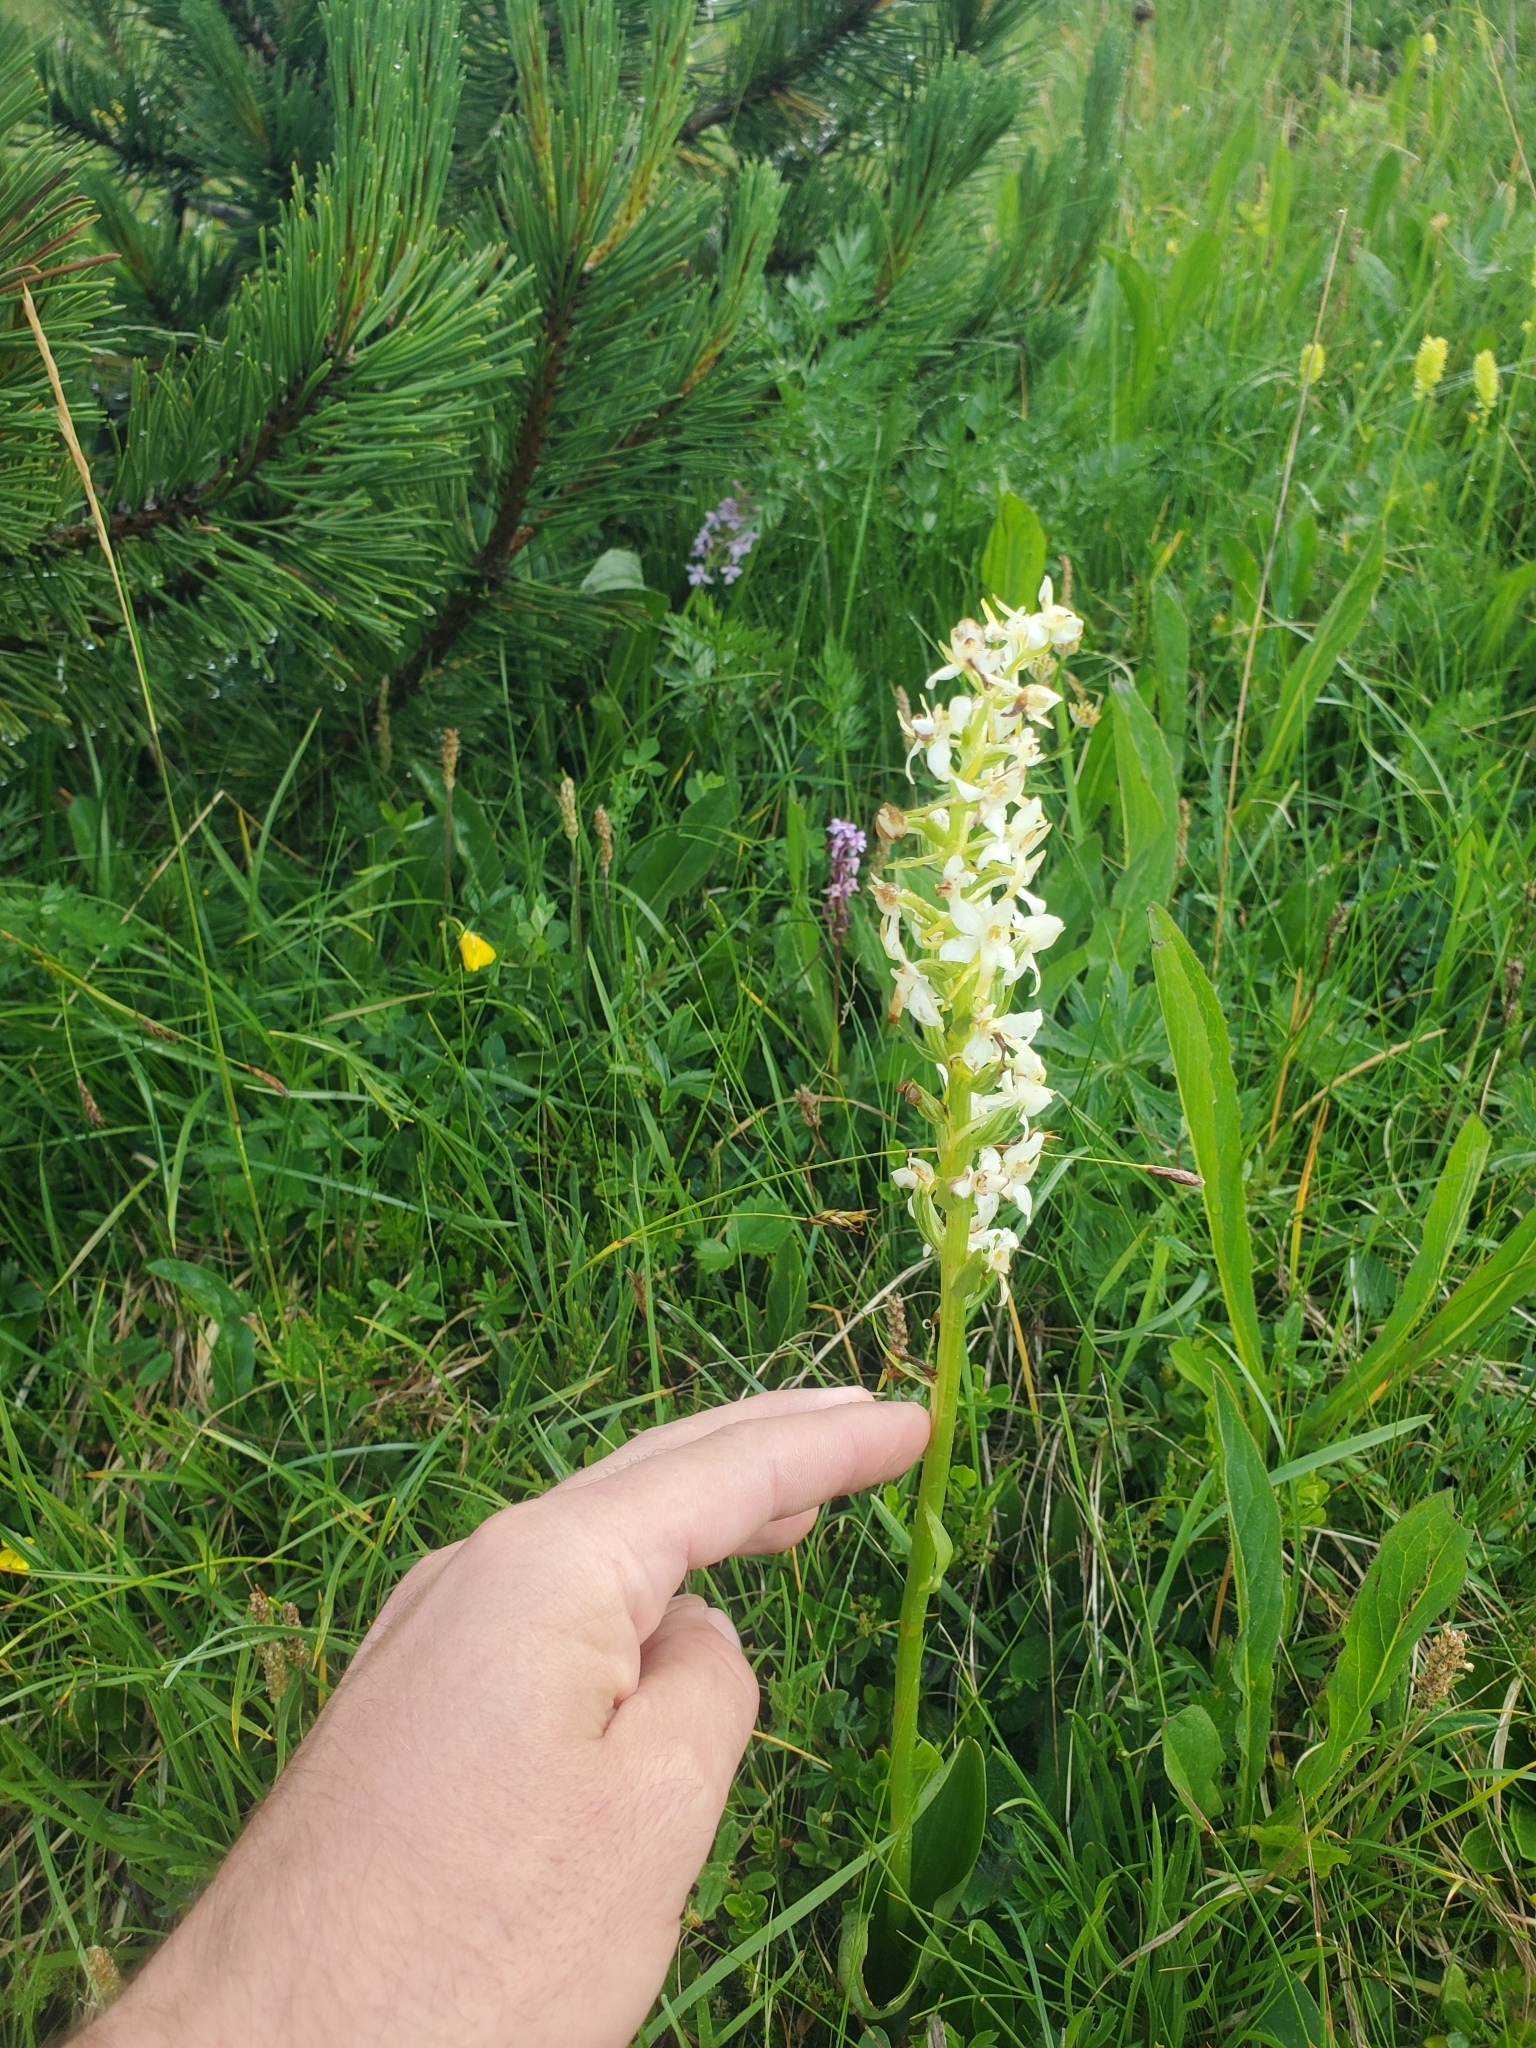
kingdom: Plantae
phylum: Tracheophyta
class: Liliopsida
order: Asparagales
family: Orchidaceae
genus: Platanthera
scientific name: Platanthera bifolia
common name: Lesser butterfly-orchid
